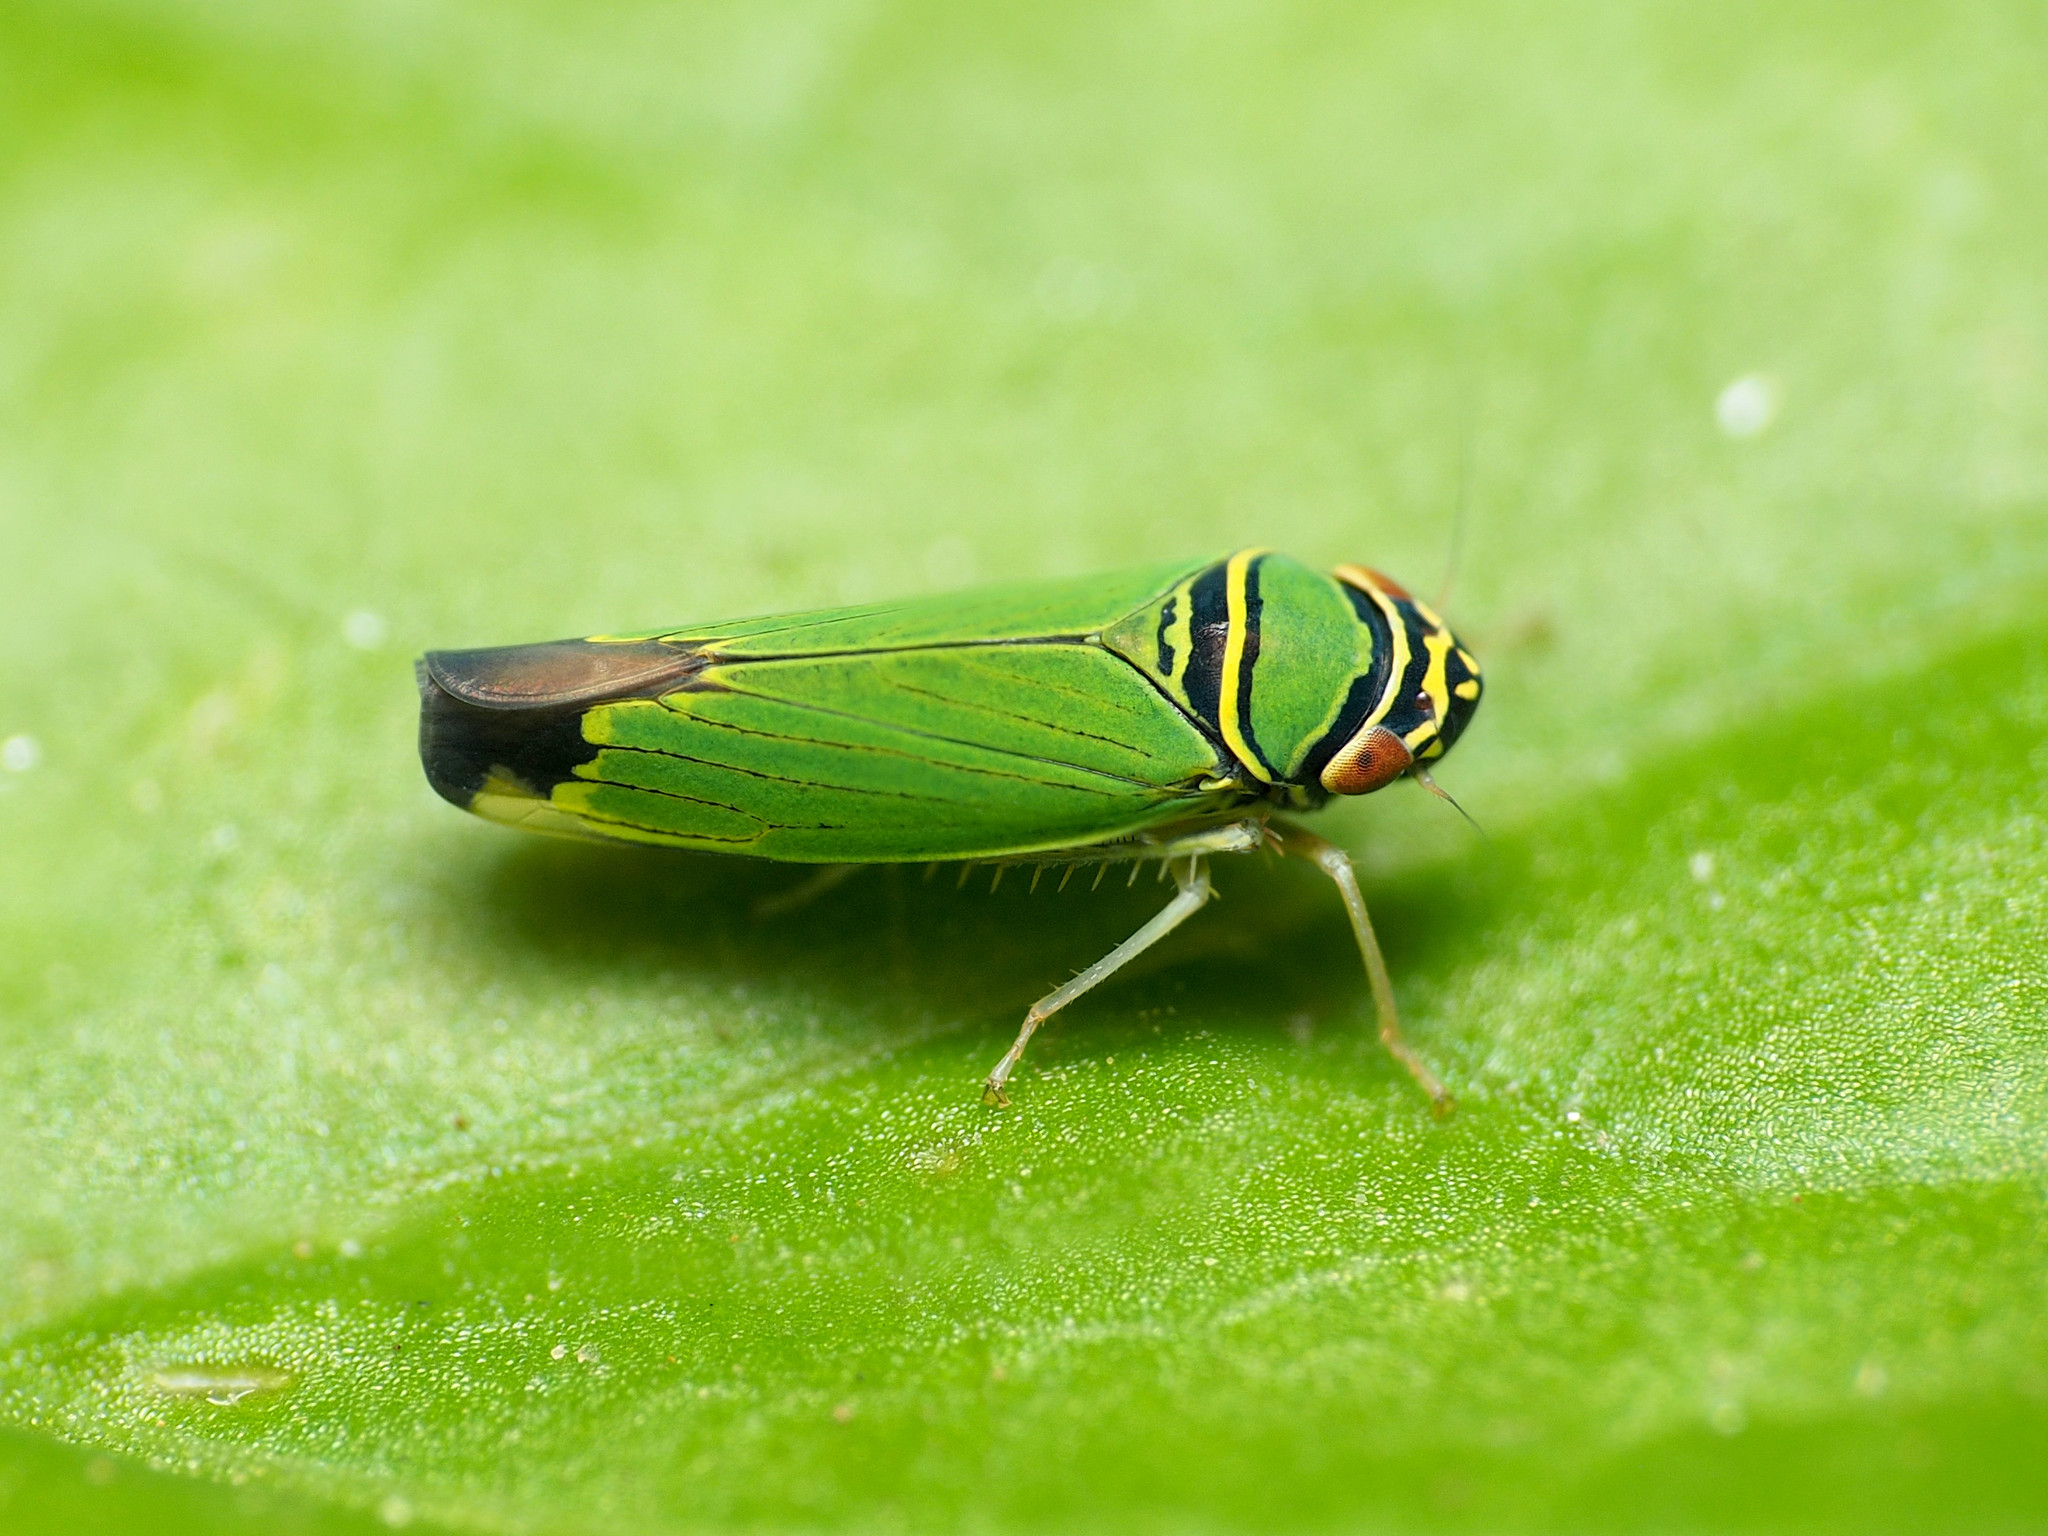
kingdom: Animalia
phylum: Arthropoda
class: Insecta
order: Hemiptera
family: Cicadellidae
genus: Tylozygus
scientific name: Tylozygus geometricus
